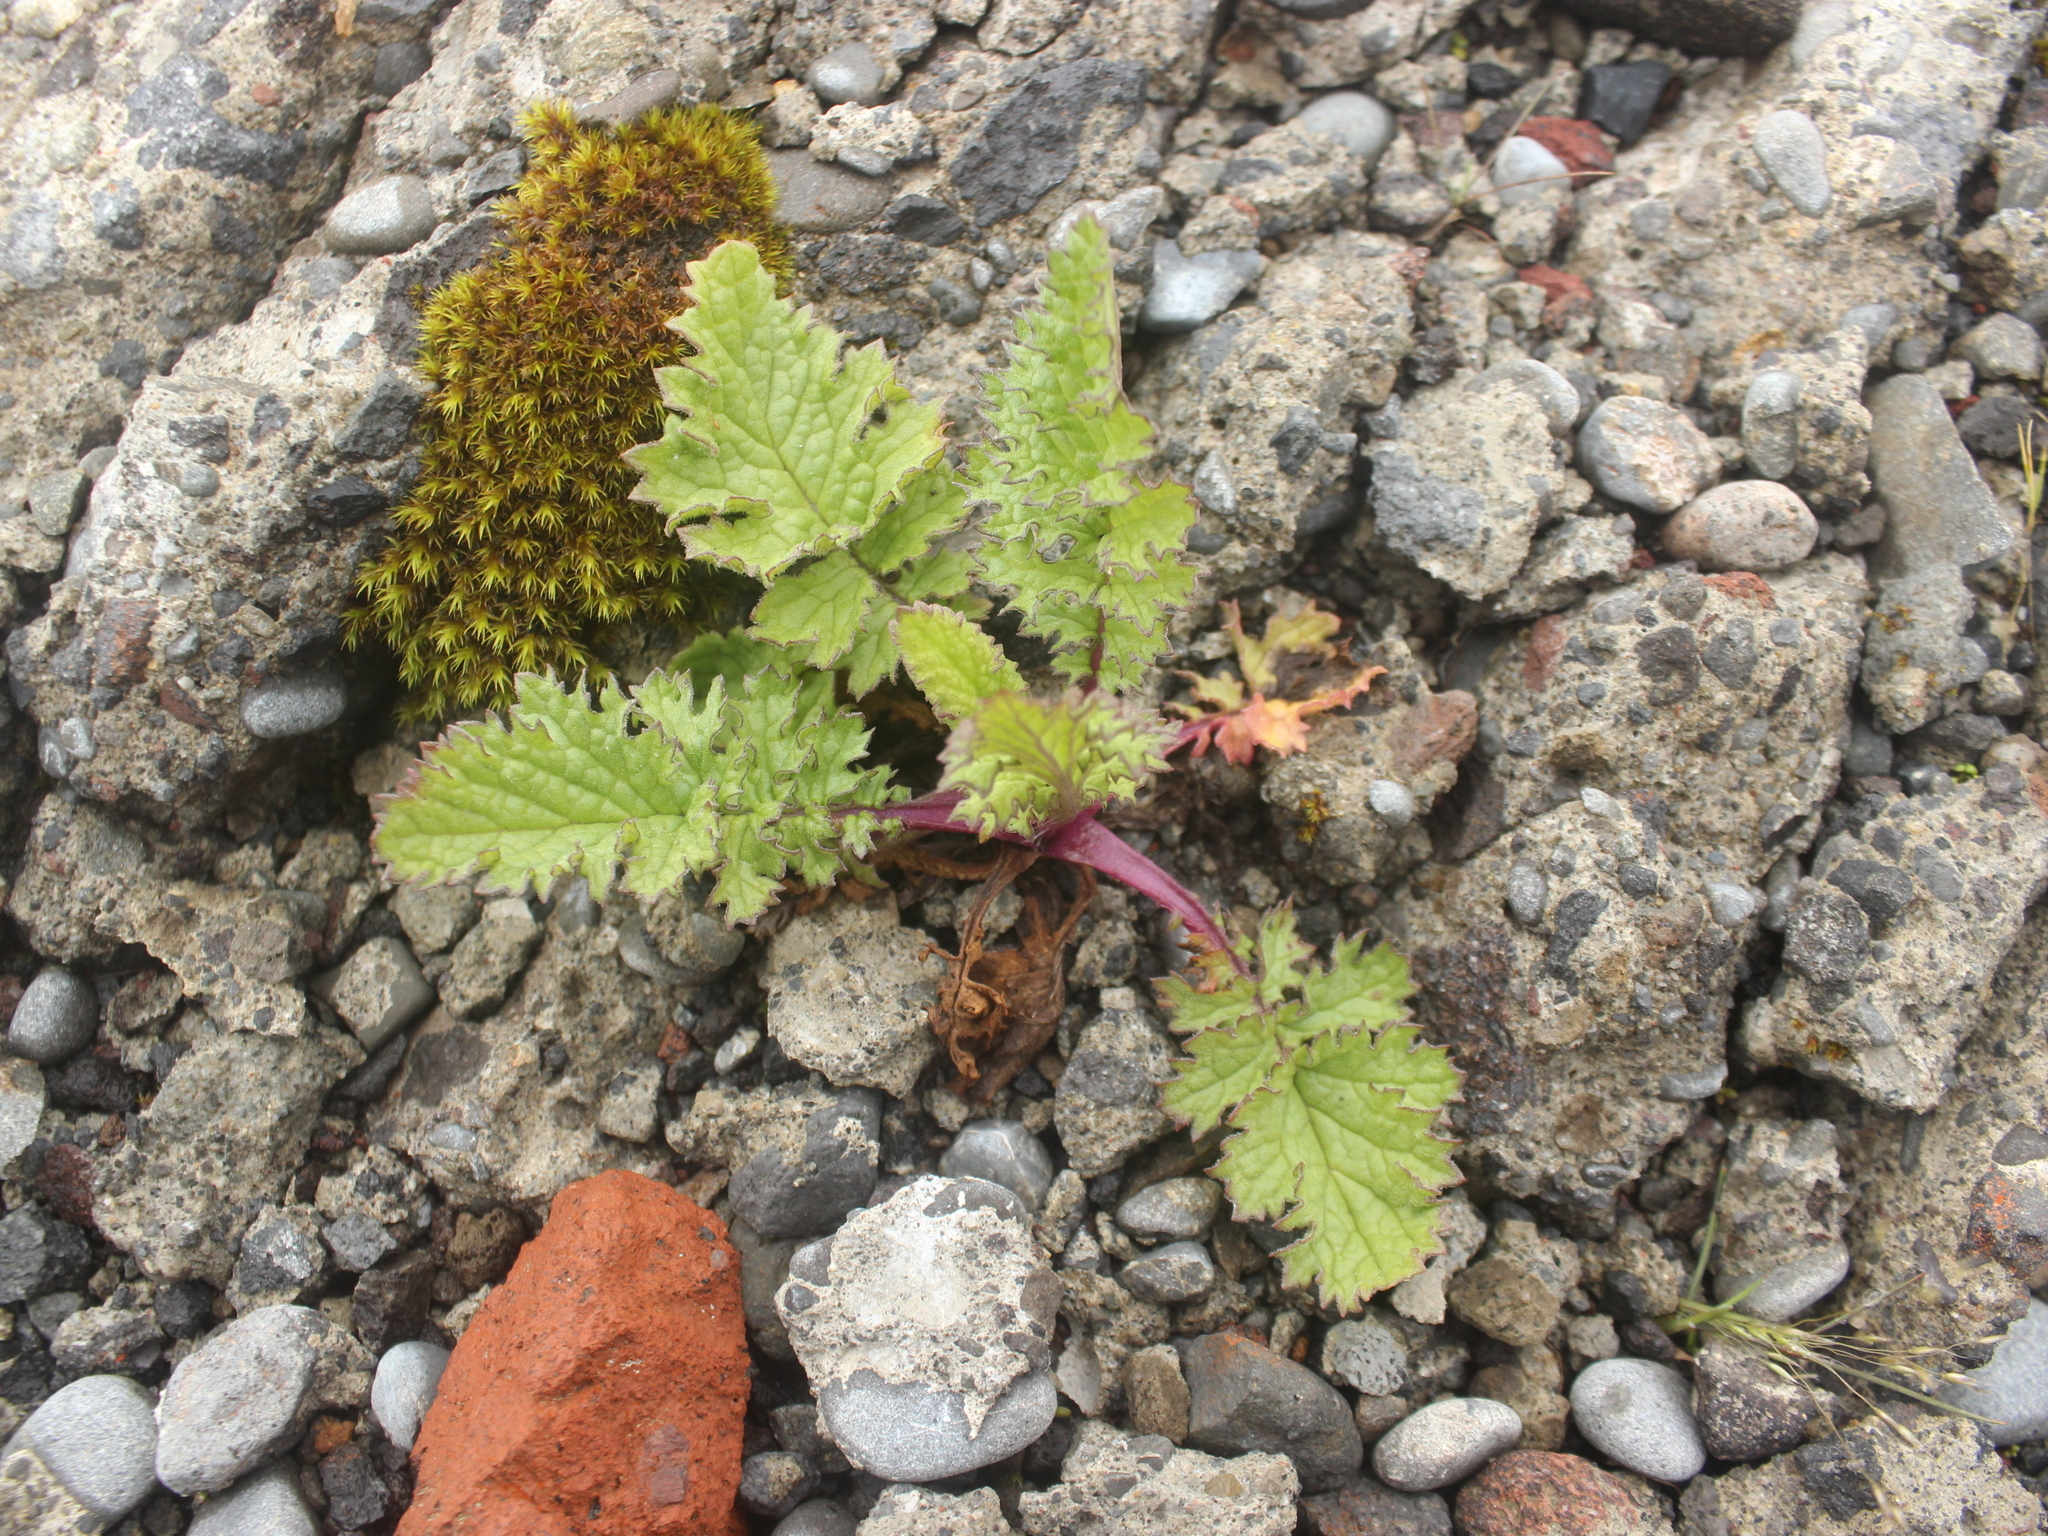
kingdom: Plantae
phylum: Tracheophyta
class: Magnoliopsida
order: Asterales
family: Asteraceae
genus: Jacobaea
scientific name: Jacobaea vulgaris
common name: Stinking willie
